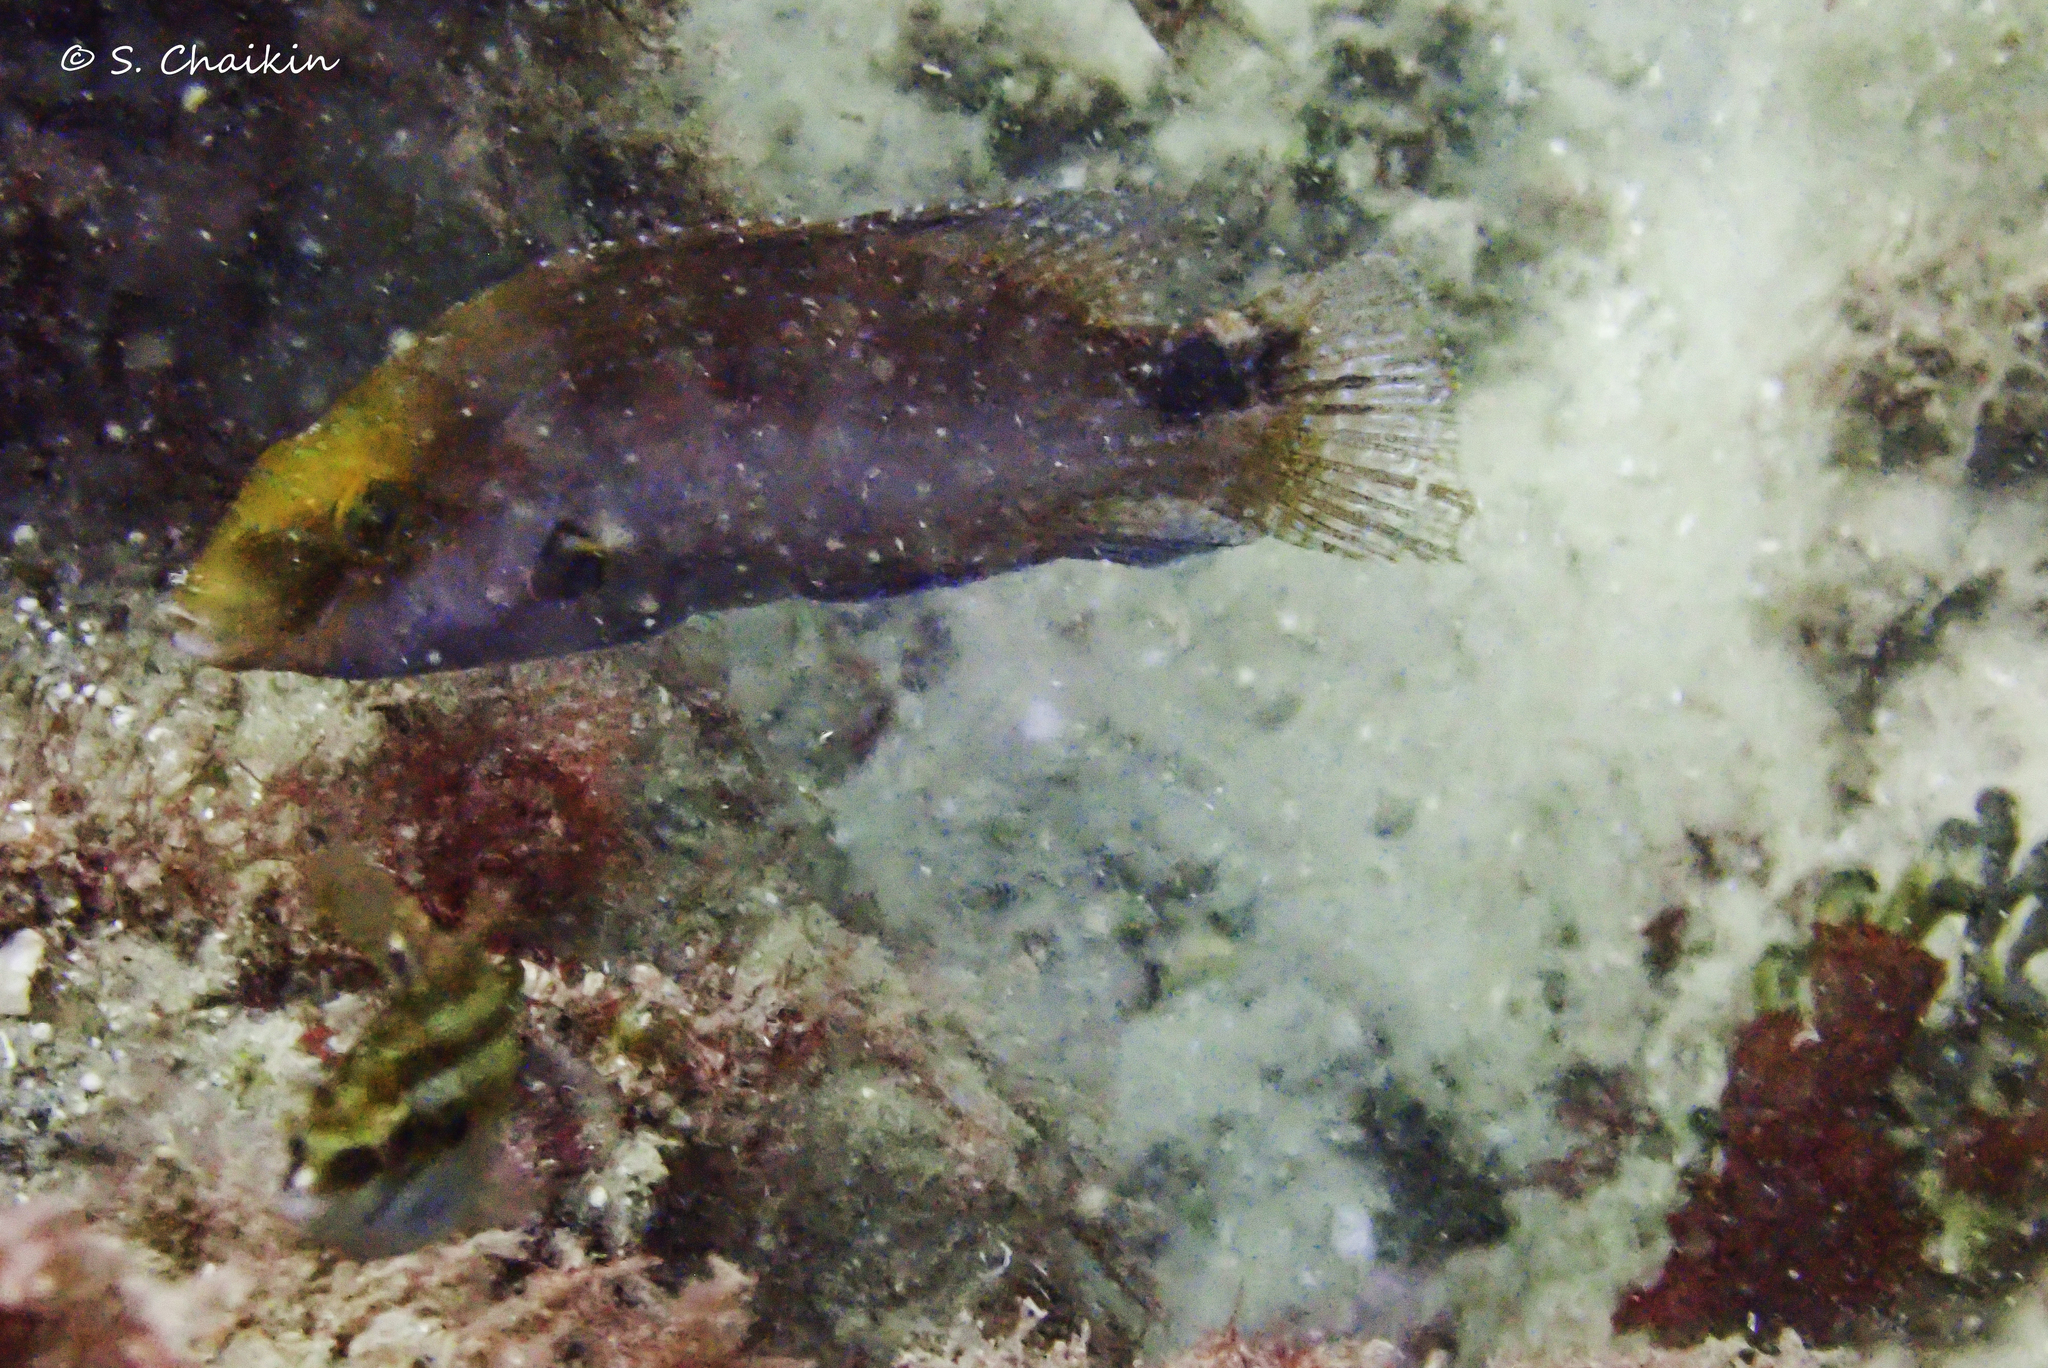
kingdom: Animalia
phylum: Chordata
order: Perciformes
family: Labridae
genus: Symphodus
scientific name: Symphodus mediterraneus
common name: Axillary wrasse
